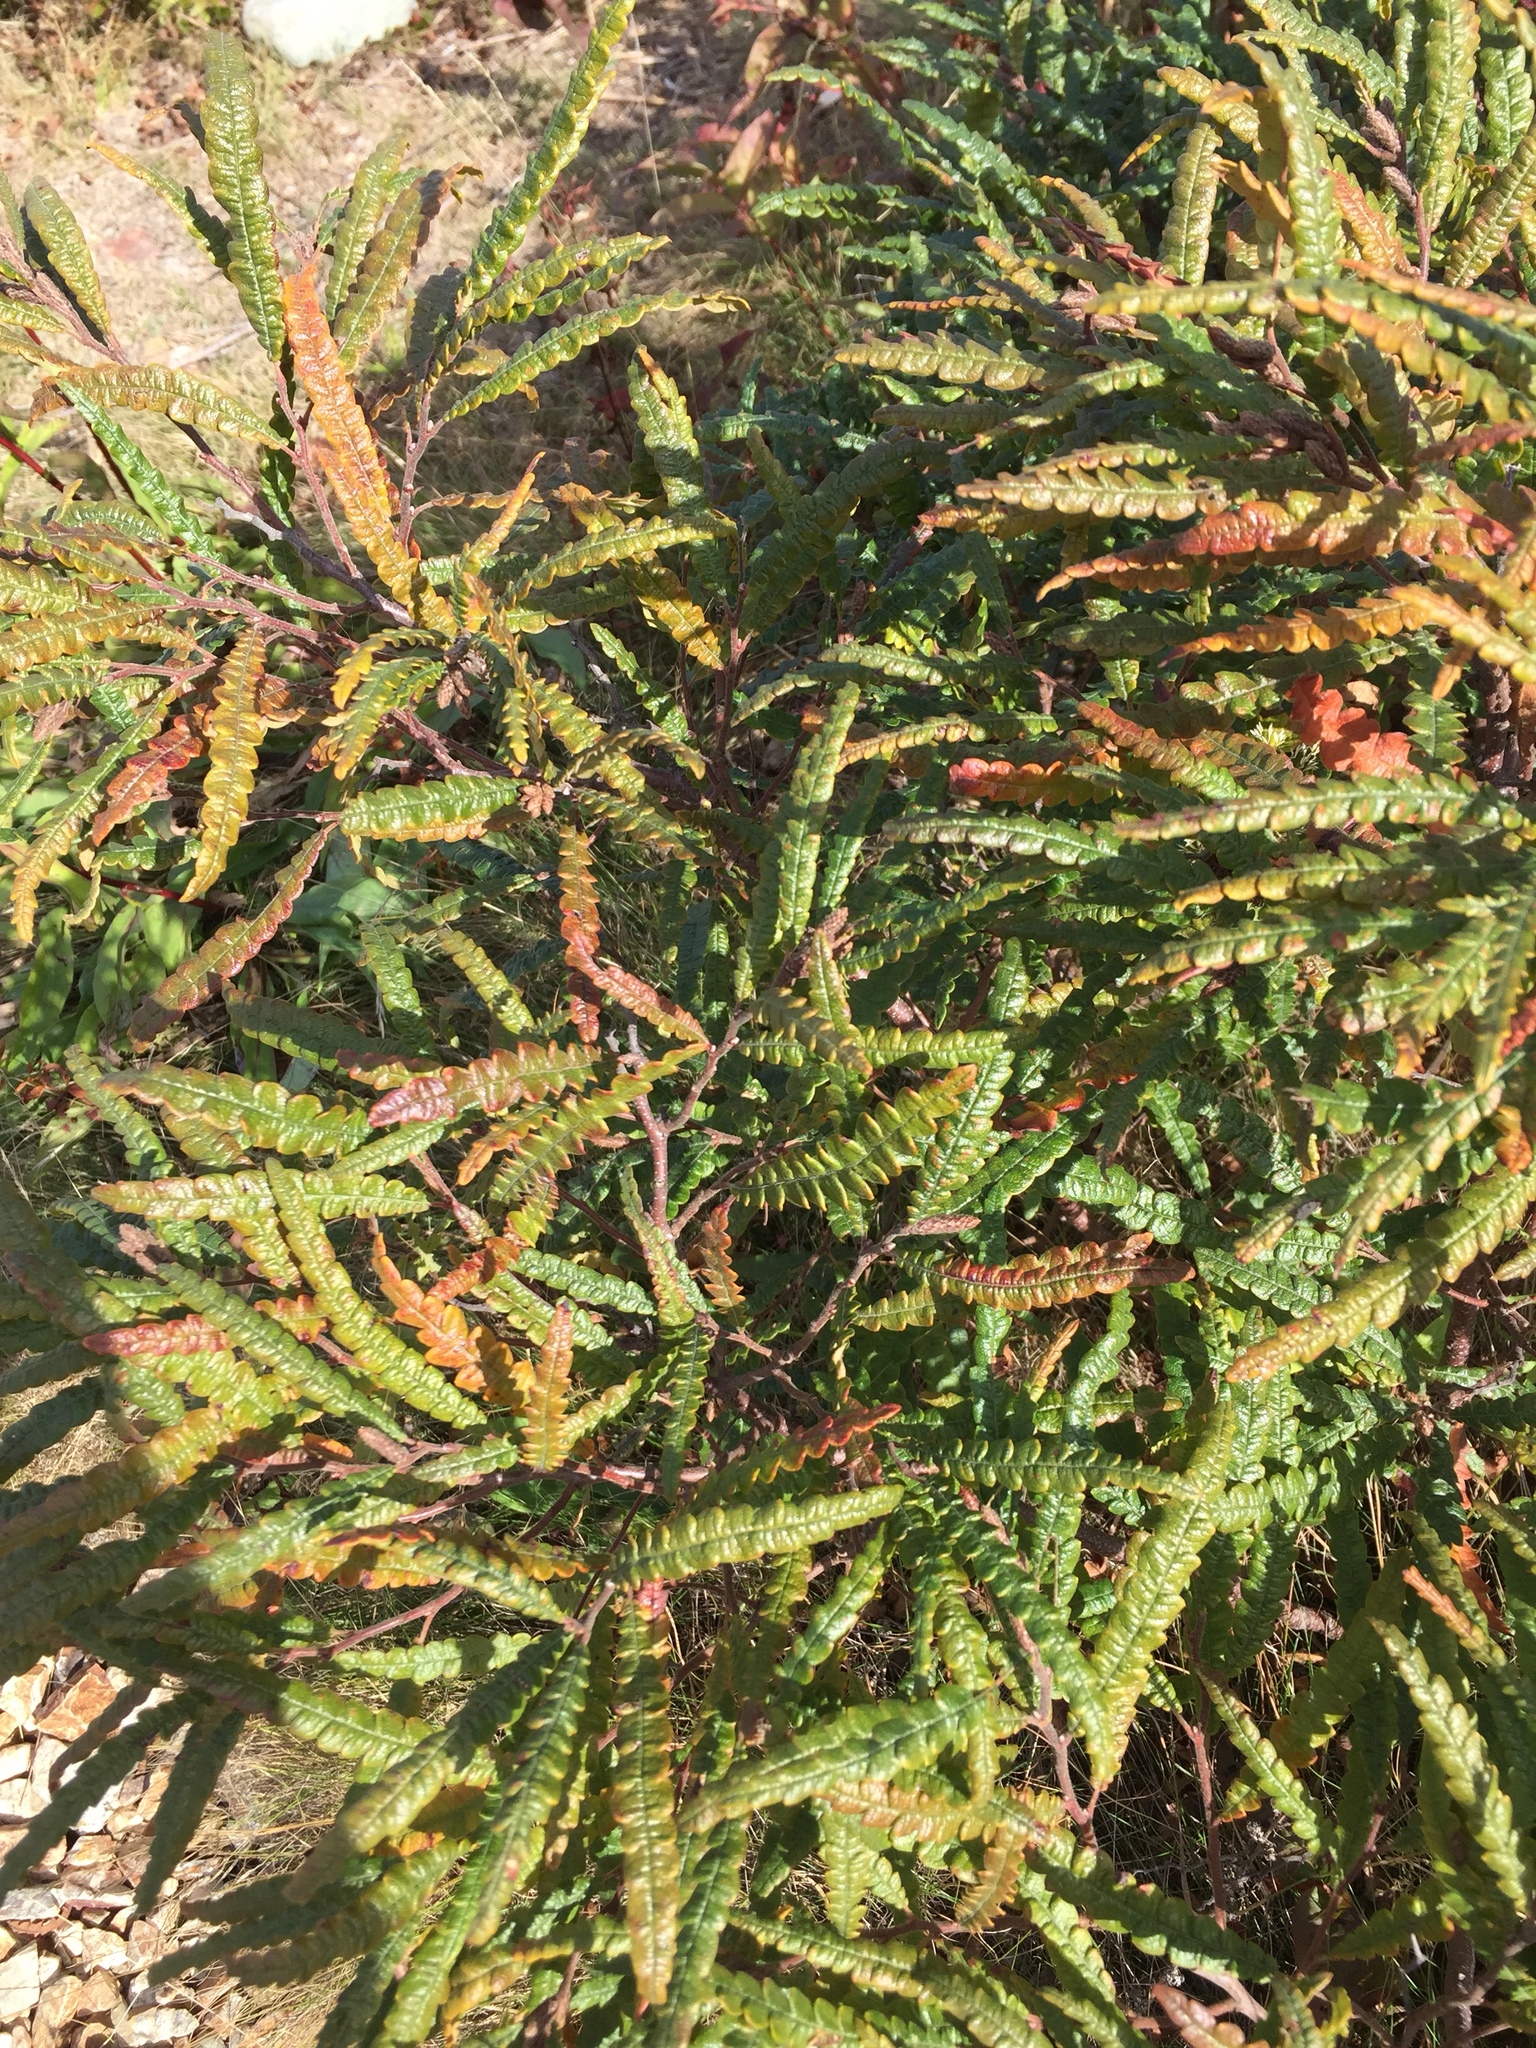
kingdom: Plantae
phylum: Tracheophyta
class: Magnoliopsida
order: Fagales
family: Myricaceae
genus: Comptonia
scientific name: Comptonia peregrina
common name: Sweet-fern
